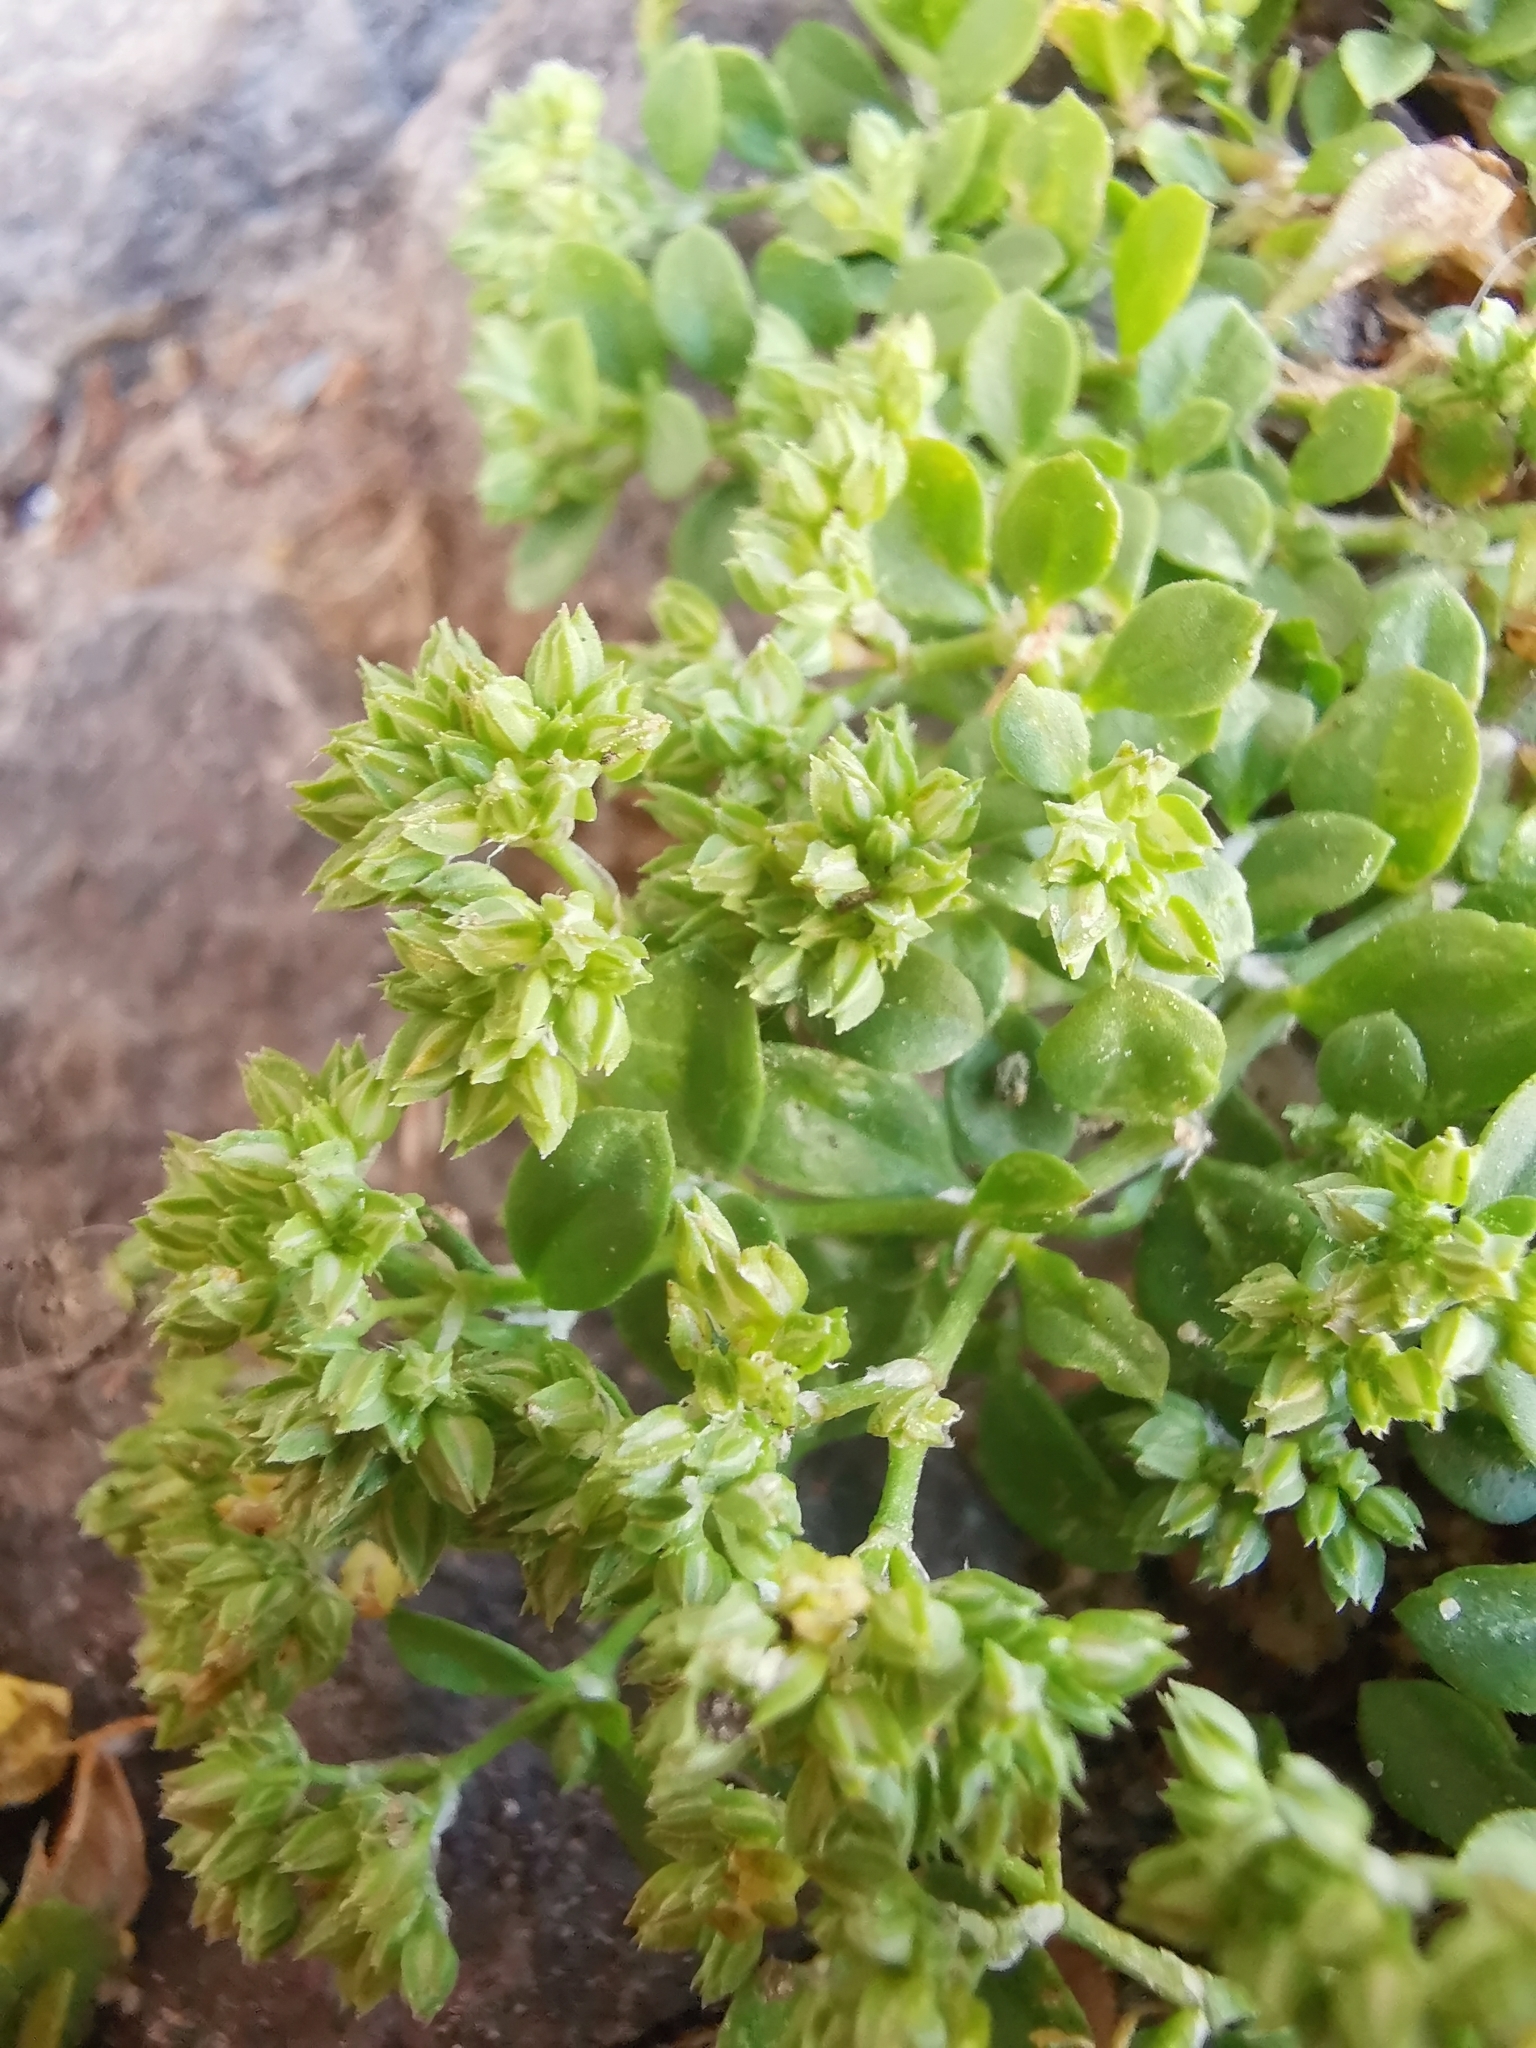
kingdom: Plantae
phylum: Tracheophyta
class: Magnoliopsida
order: Caryophyllales
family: Caryophyllaceae
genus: Polycarpon
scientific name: Polycarpon tetraphyllum
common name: Four-leaved all-seed
